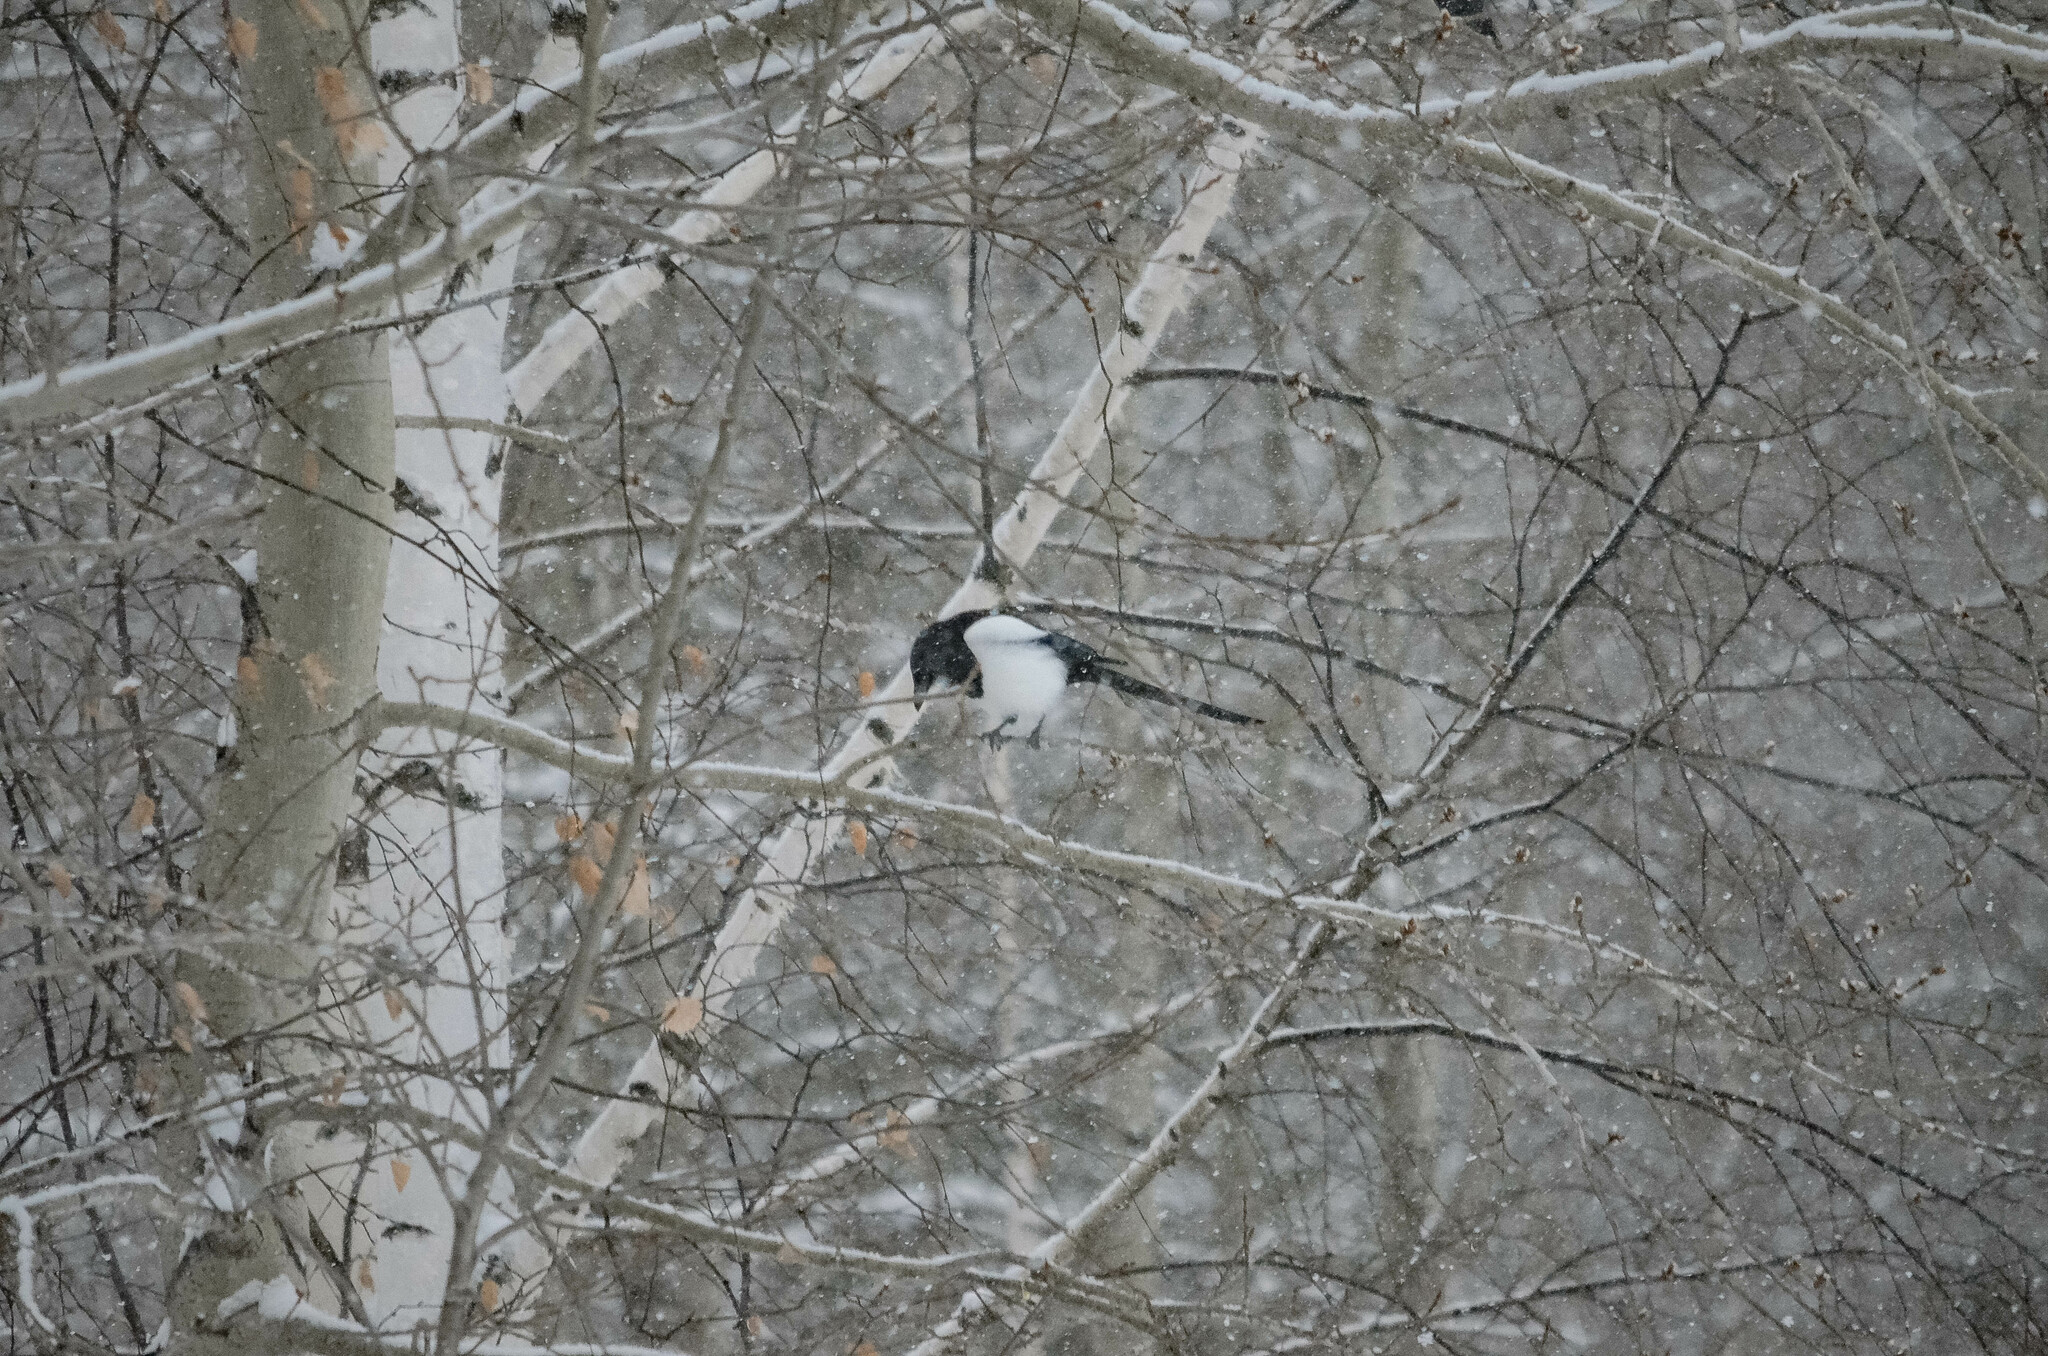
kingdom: Animalia
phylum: Chordata
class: Aves
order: Passeriformes
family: Corvidae
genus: Pica
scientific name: Pica pica
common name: Eurasian magpie
